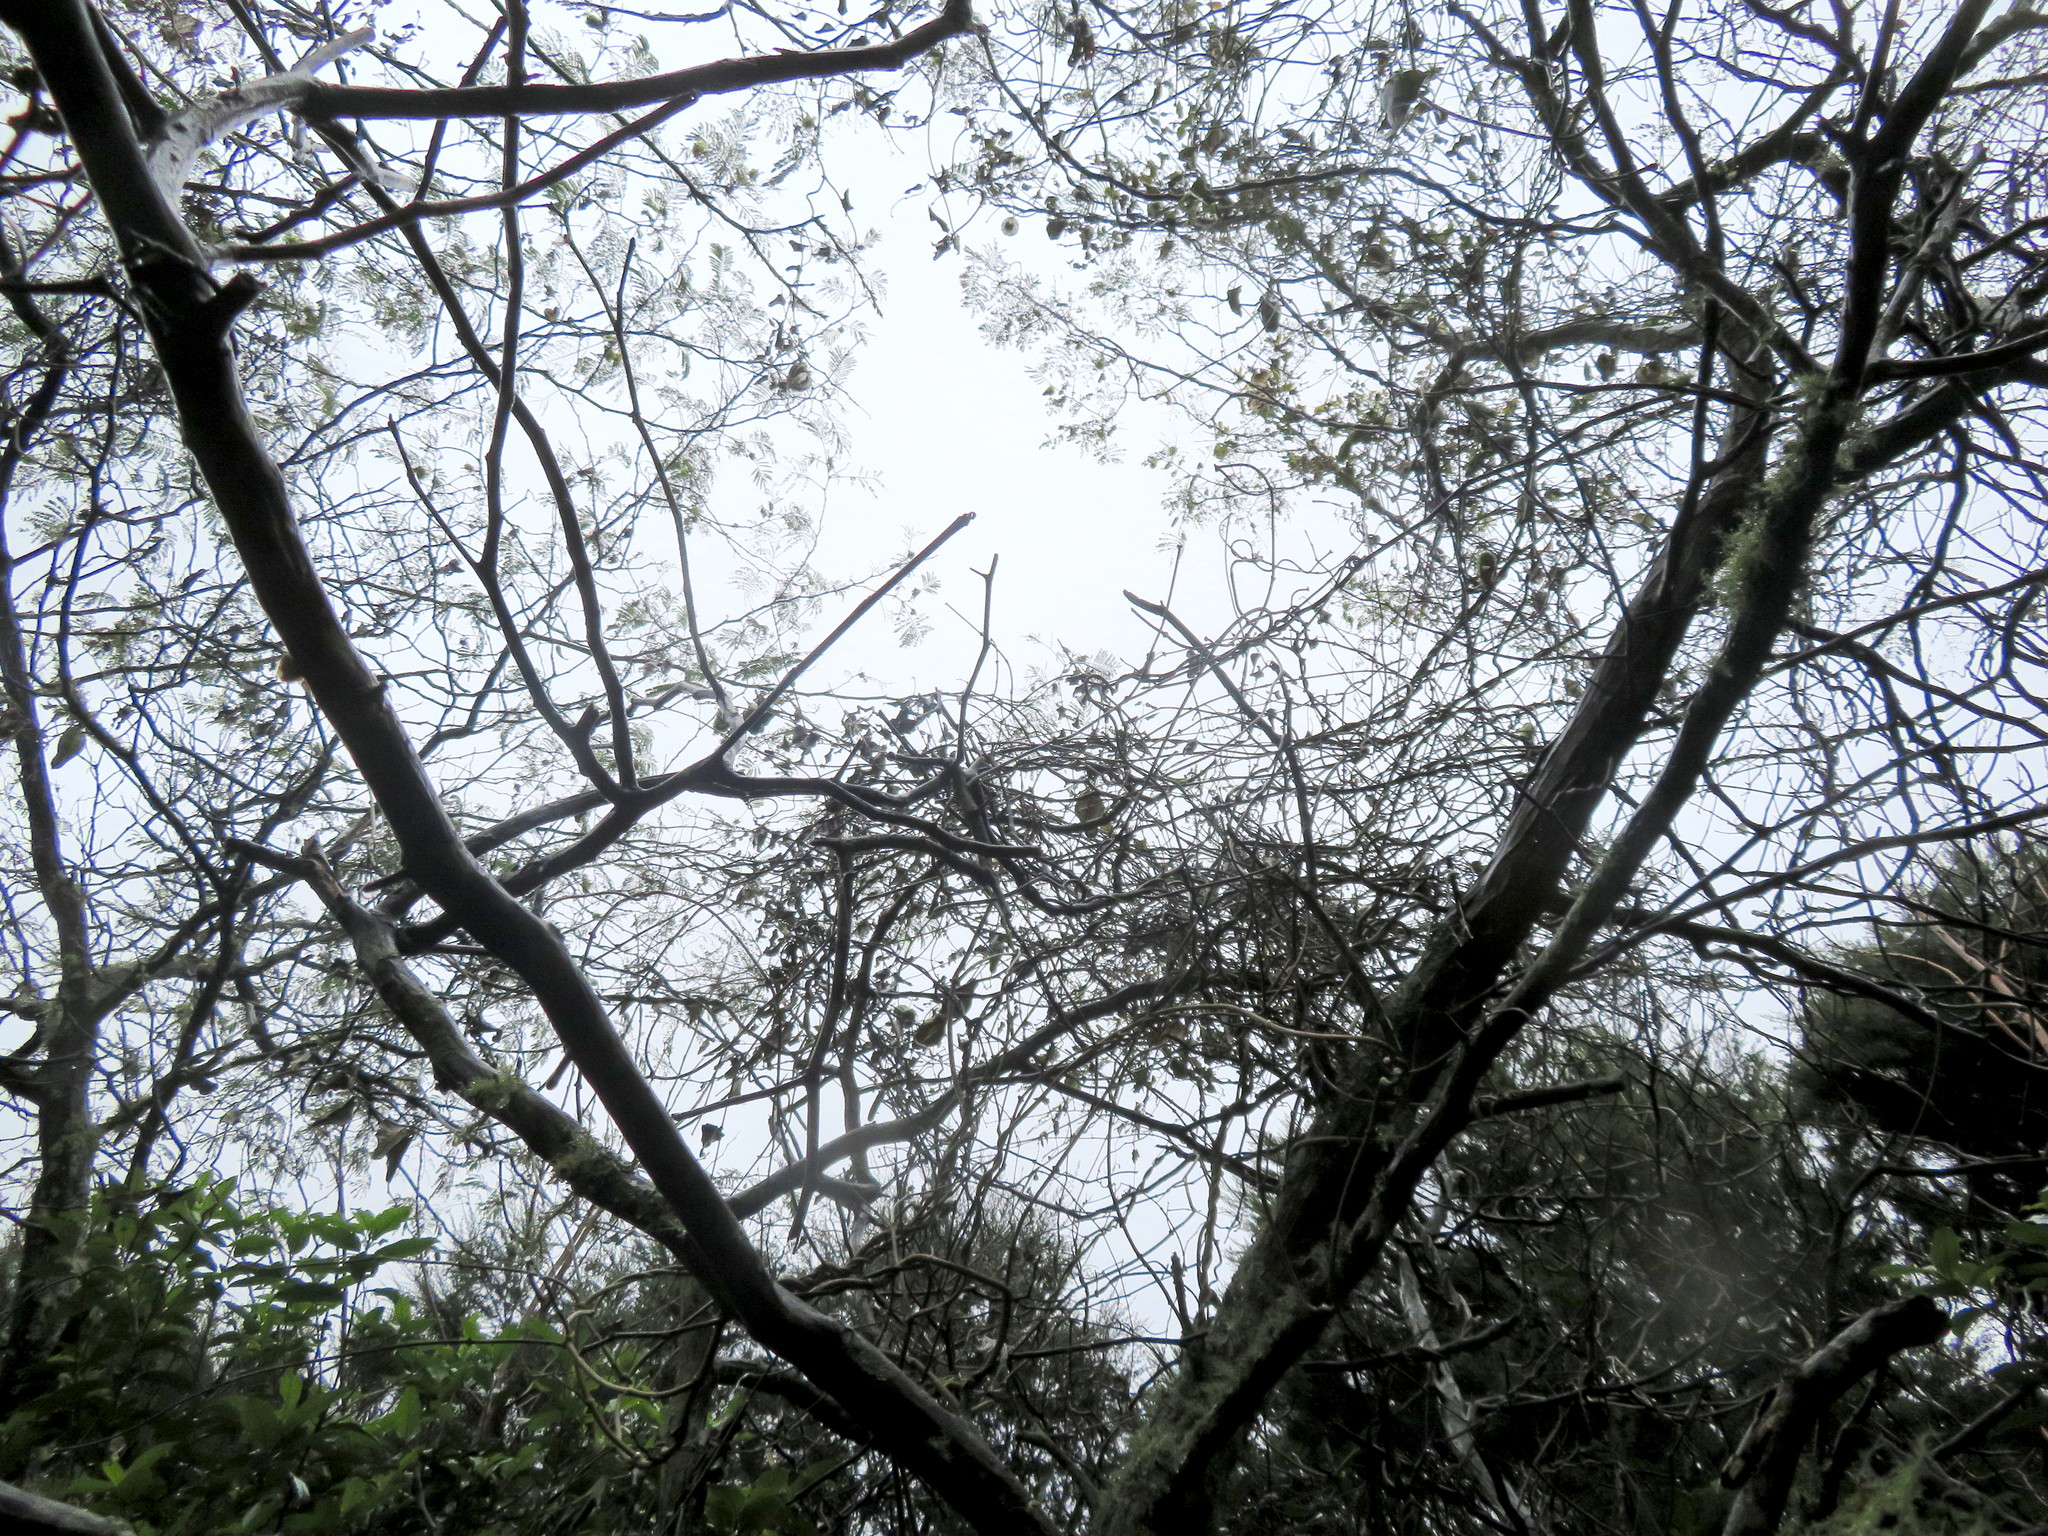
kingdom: Plantae
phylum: Tracheophyta
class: Magnoliopsida
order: Gentianales
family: Apocynaceae
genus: Araujia
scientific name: Araujia sericifera
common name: White bladderflower
